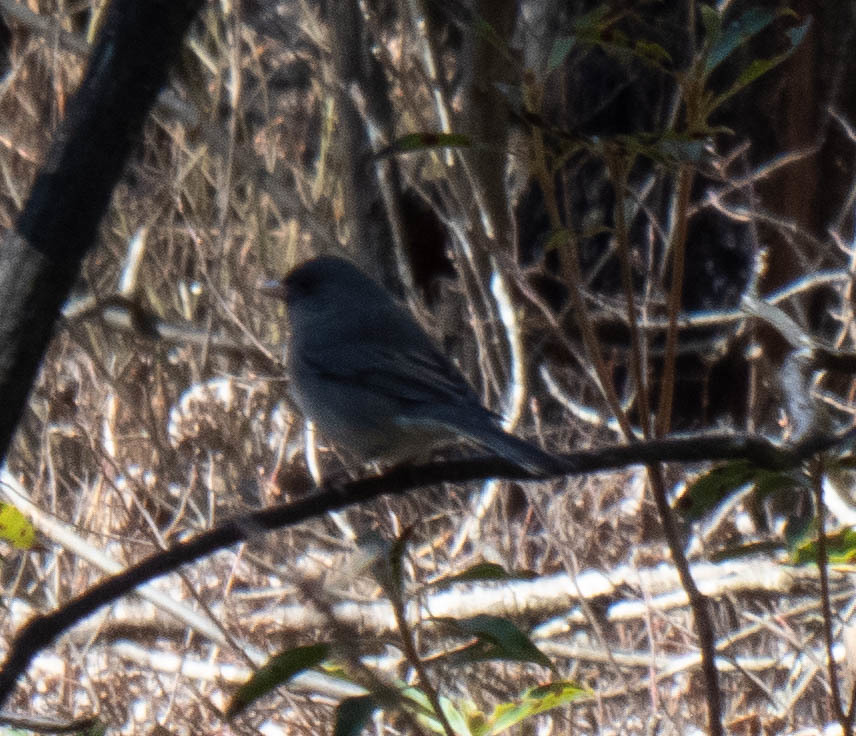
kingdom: Animalia
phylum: Chordata
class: Aves
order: Passeriformes
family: Passerellidae
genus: Junco
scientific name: Junco hyemalis
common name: Dark-eyed junco
